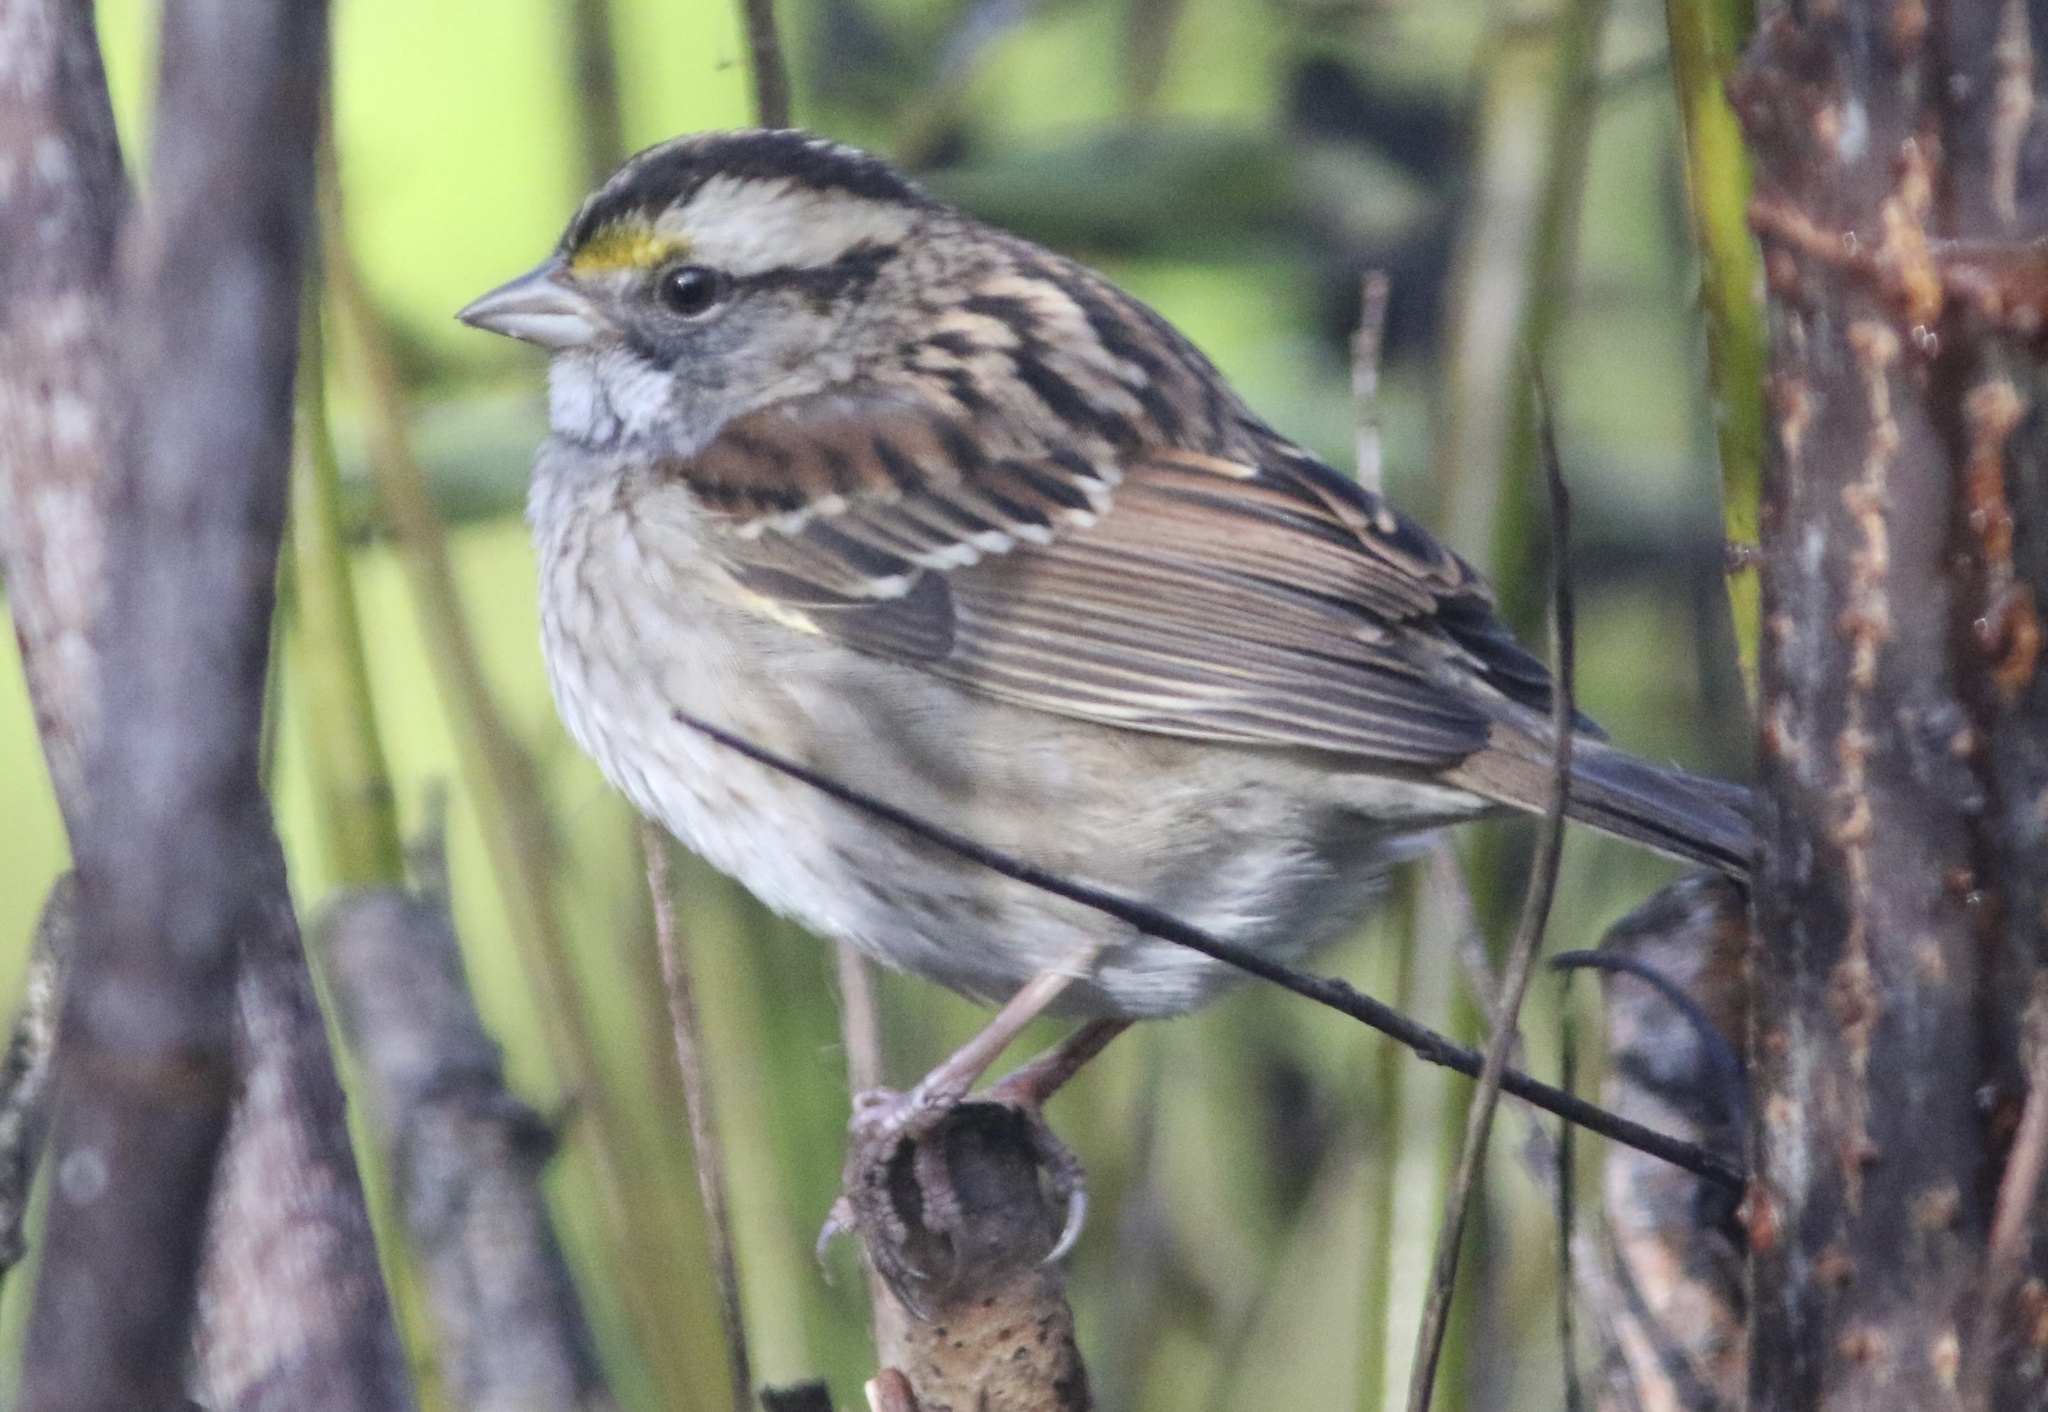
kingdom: Animalia
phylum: Chordata
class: Aves
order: Passeriformes
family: Passerellidae
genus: Zonotrichia
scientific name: Zonotrichia albicollis
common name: White-throated sparrow
